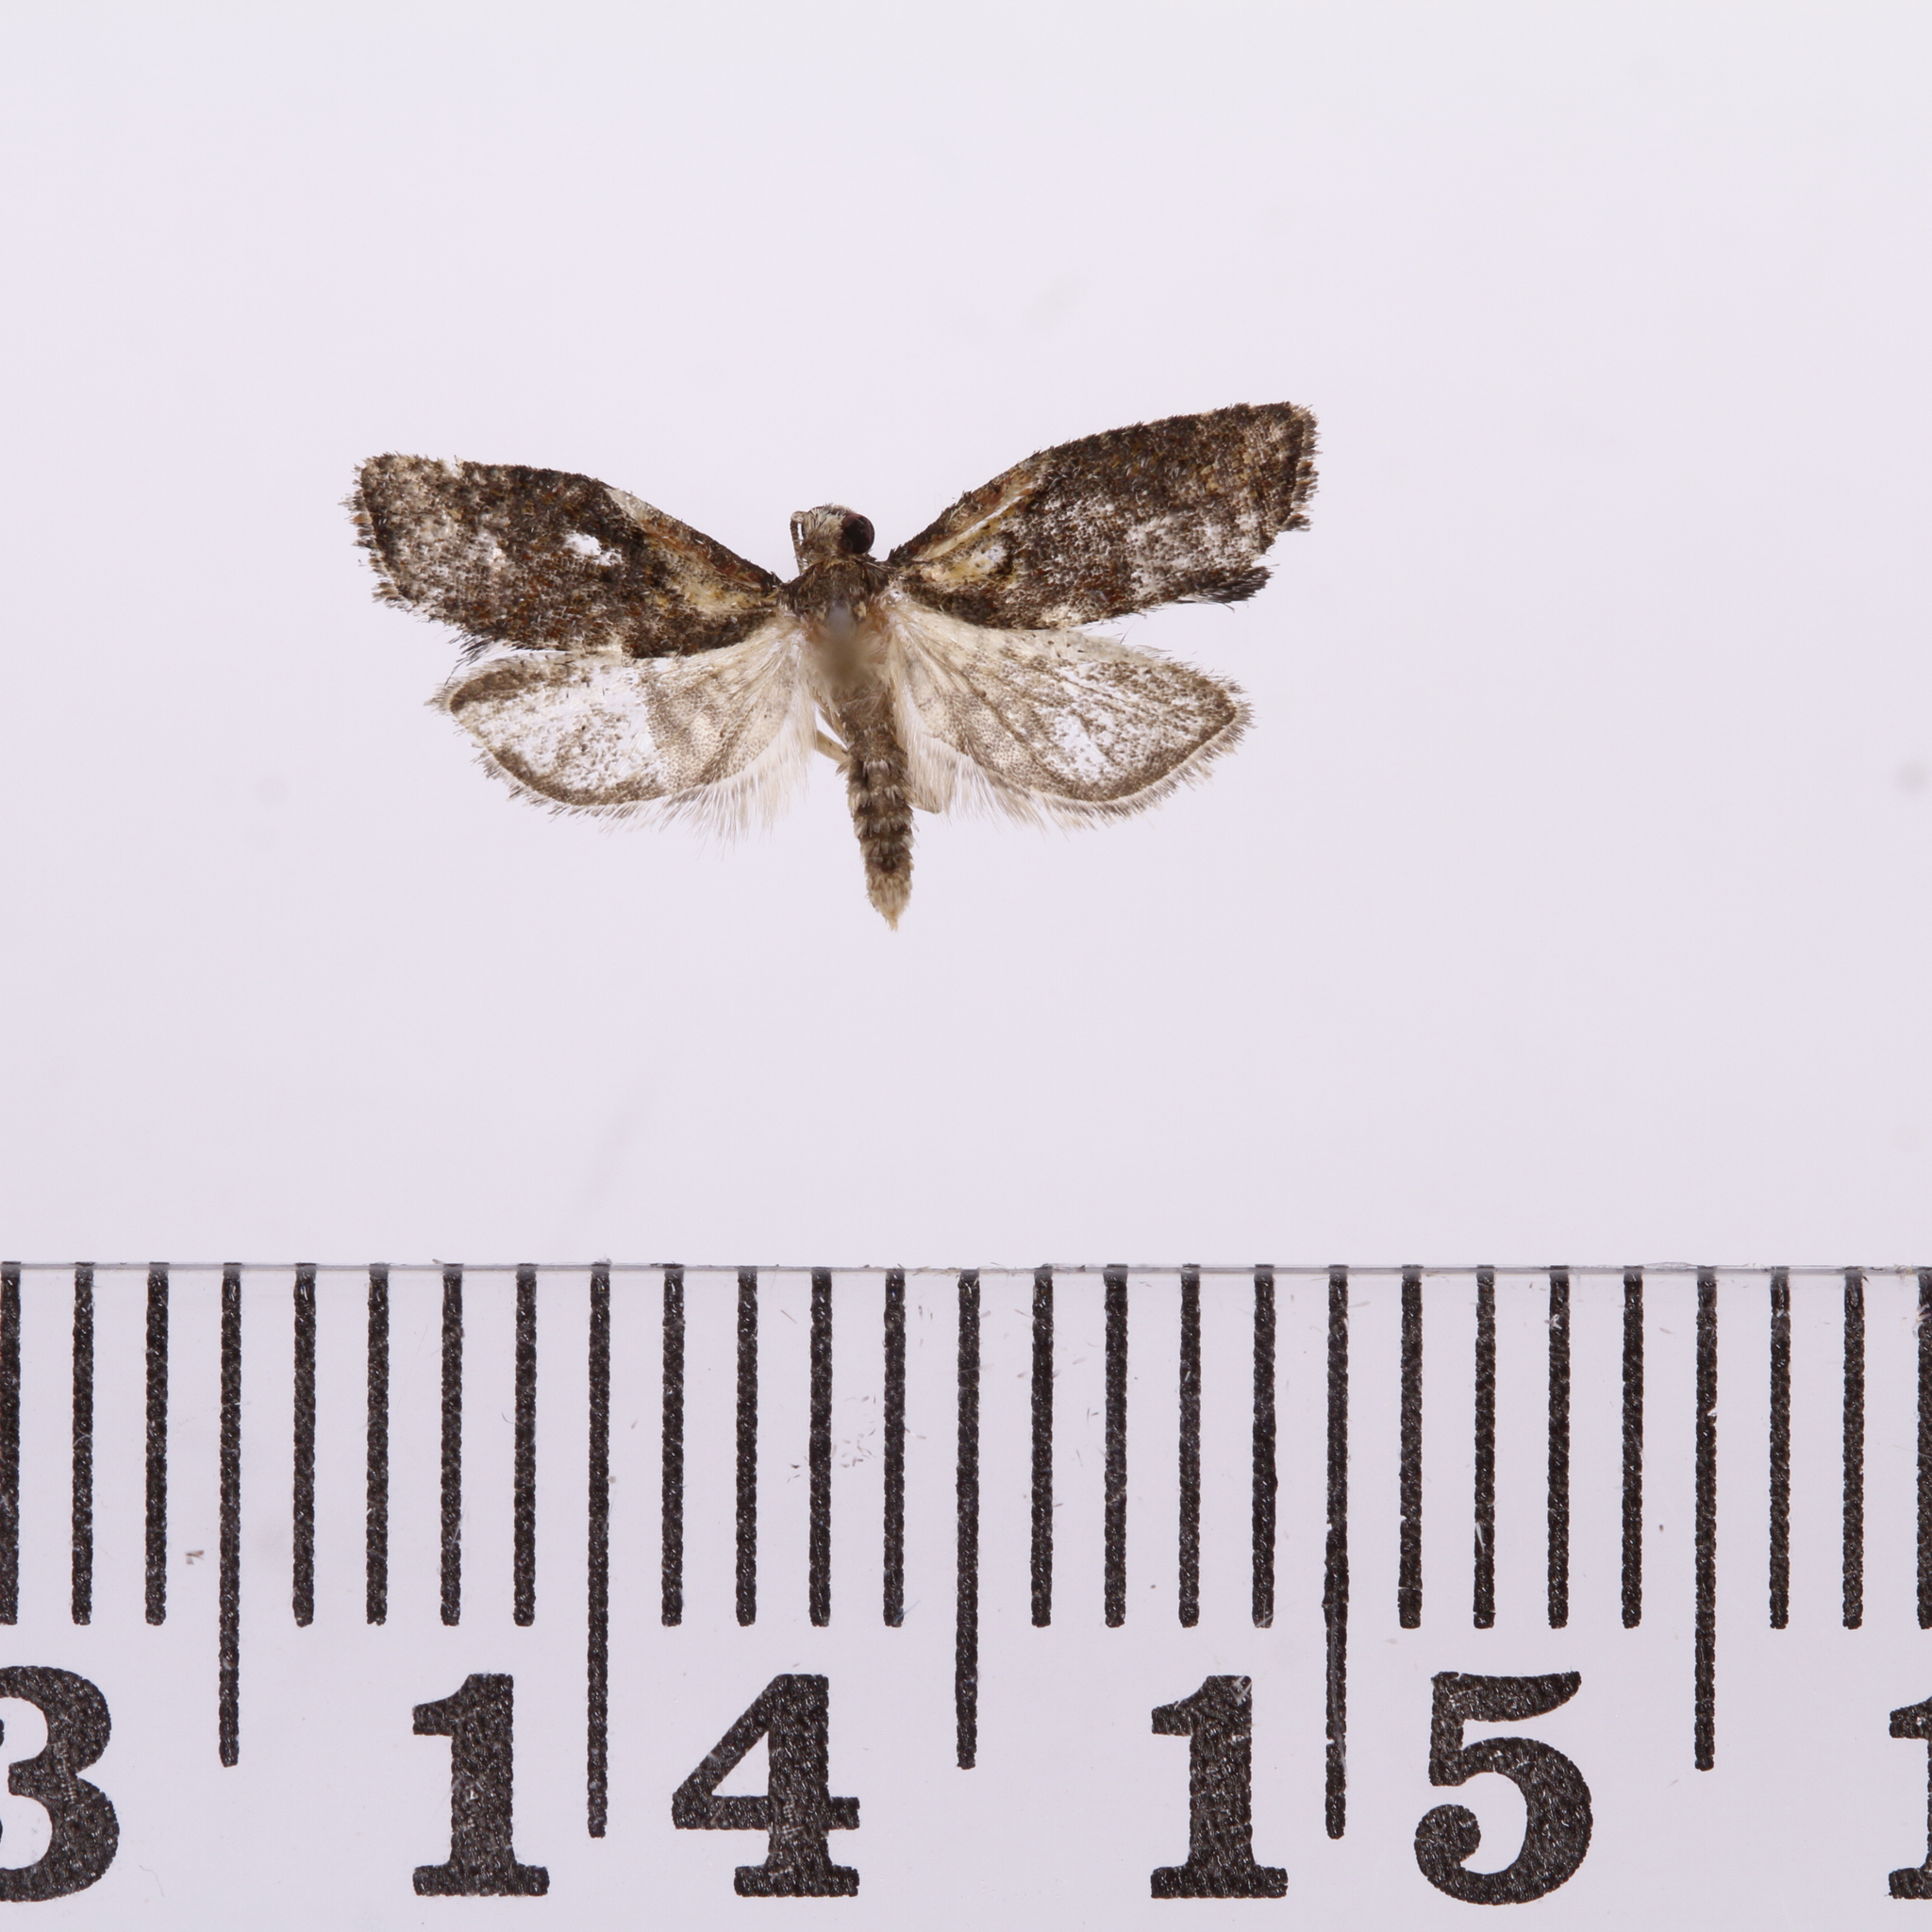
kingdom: Animalia
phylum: Arthropoda
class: Insecta
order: Lepidoptera
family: Tortricidae
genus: Capua
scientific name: Capua intractana
